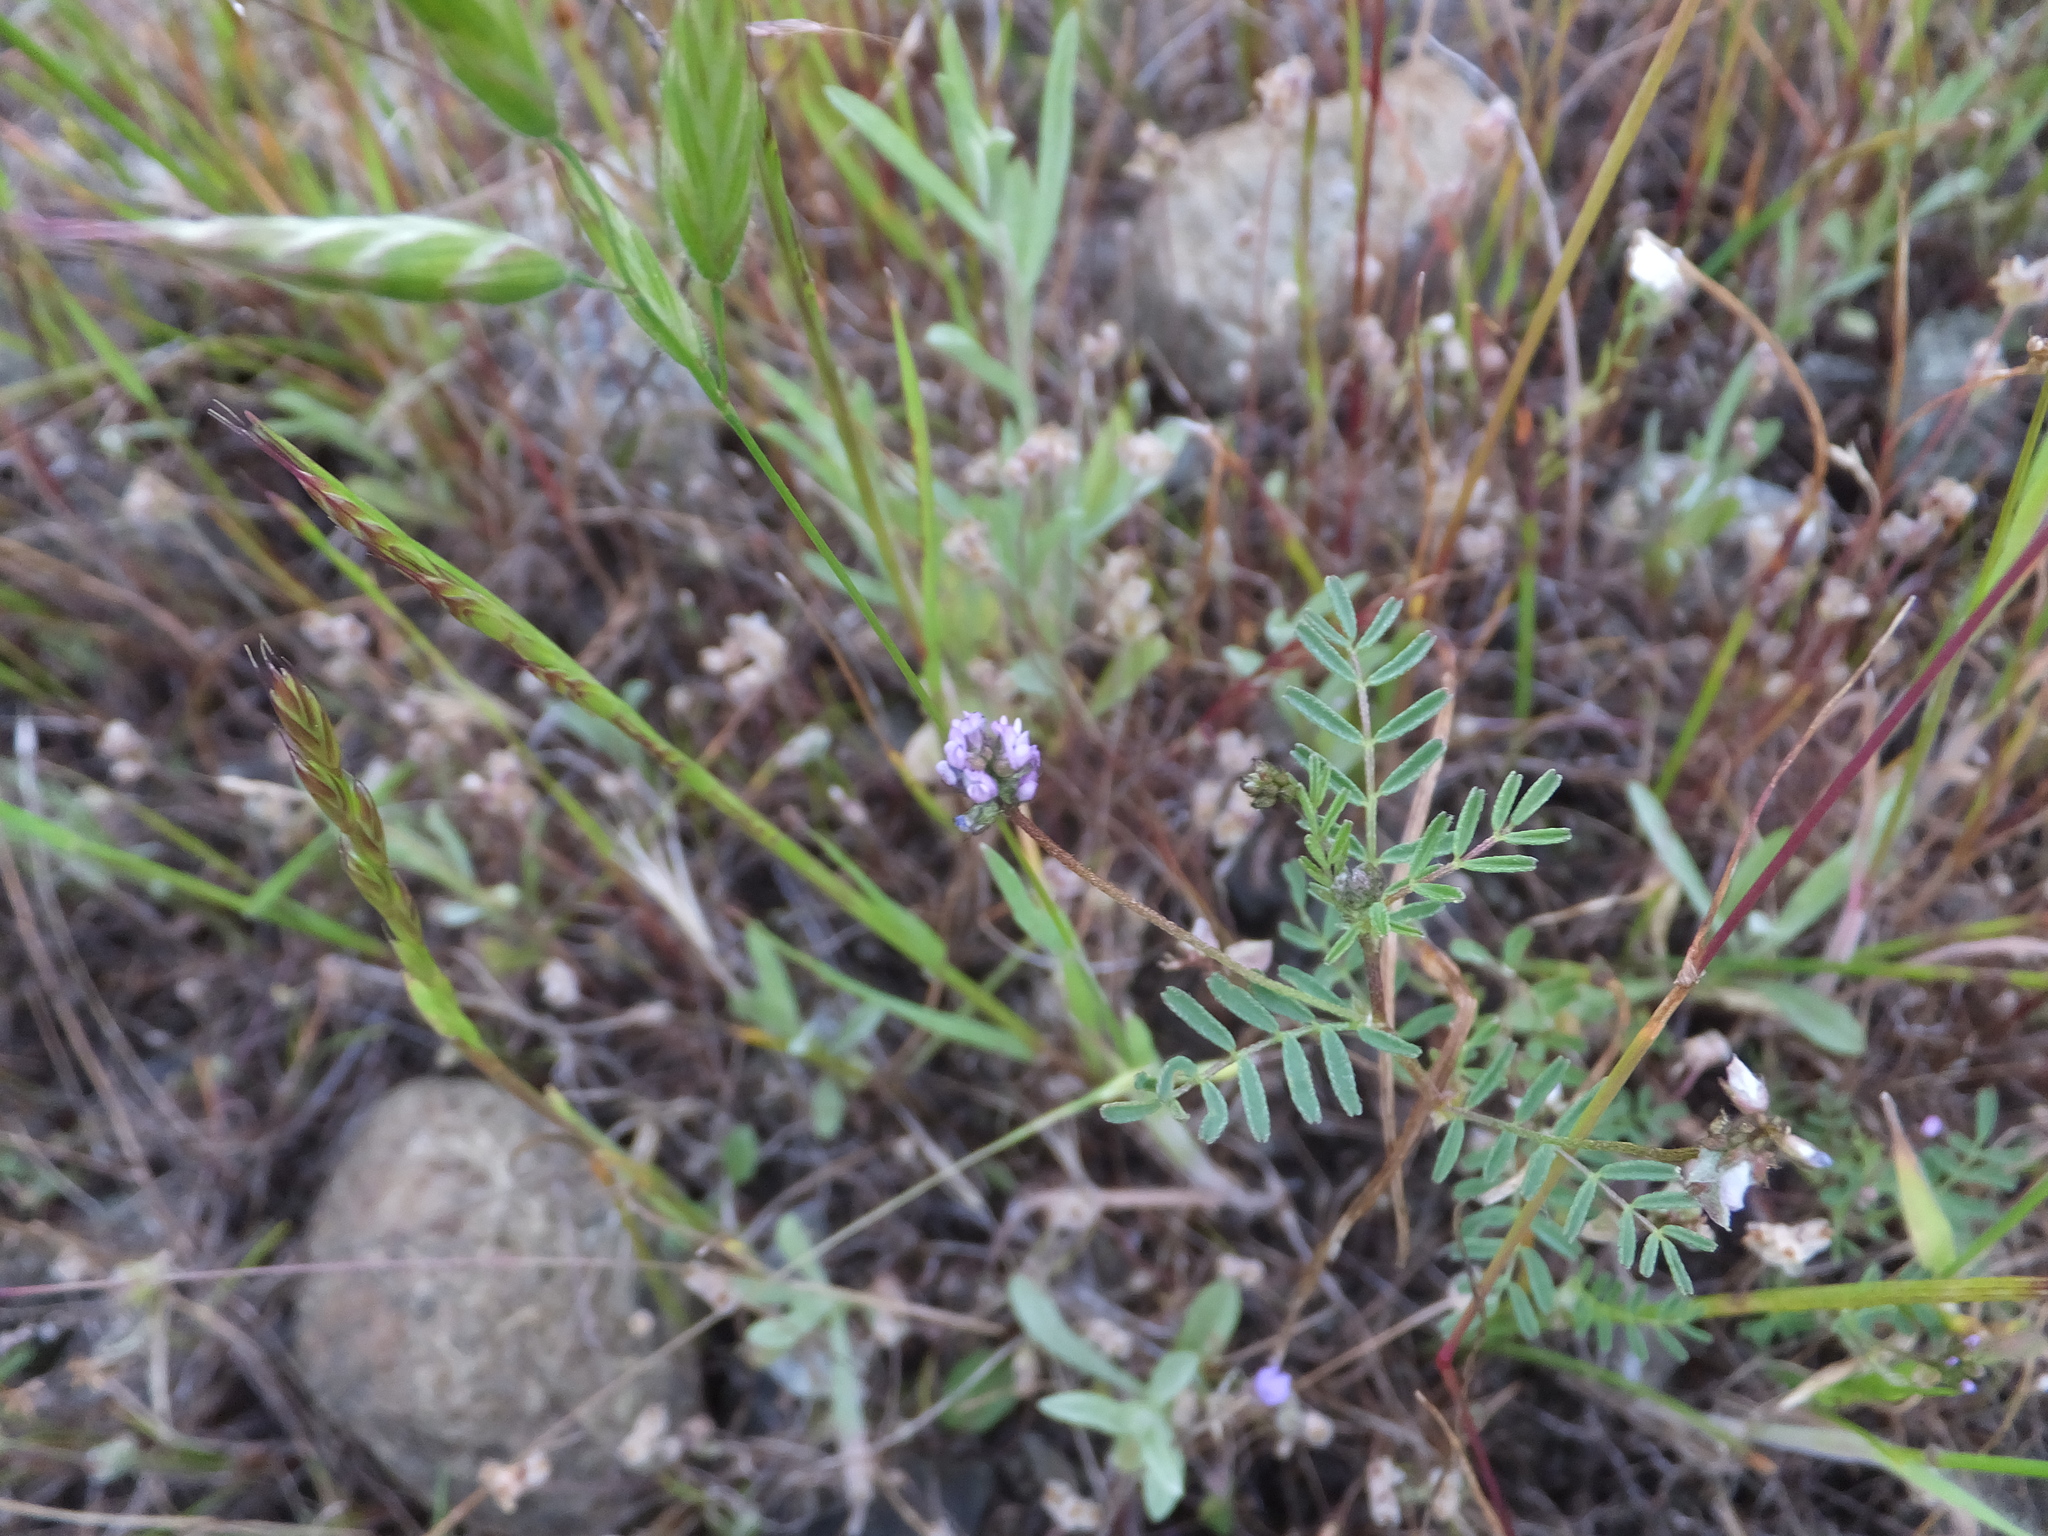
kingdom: Plantae
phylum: Tracheophyta
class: Magnoliopsida
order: Fabales
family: Fabaceae
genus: Astragalus
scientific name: Astragalus gambelianus
